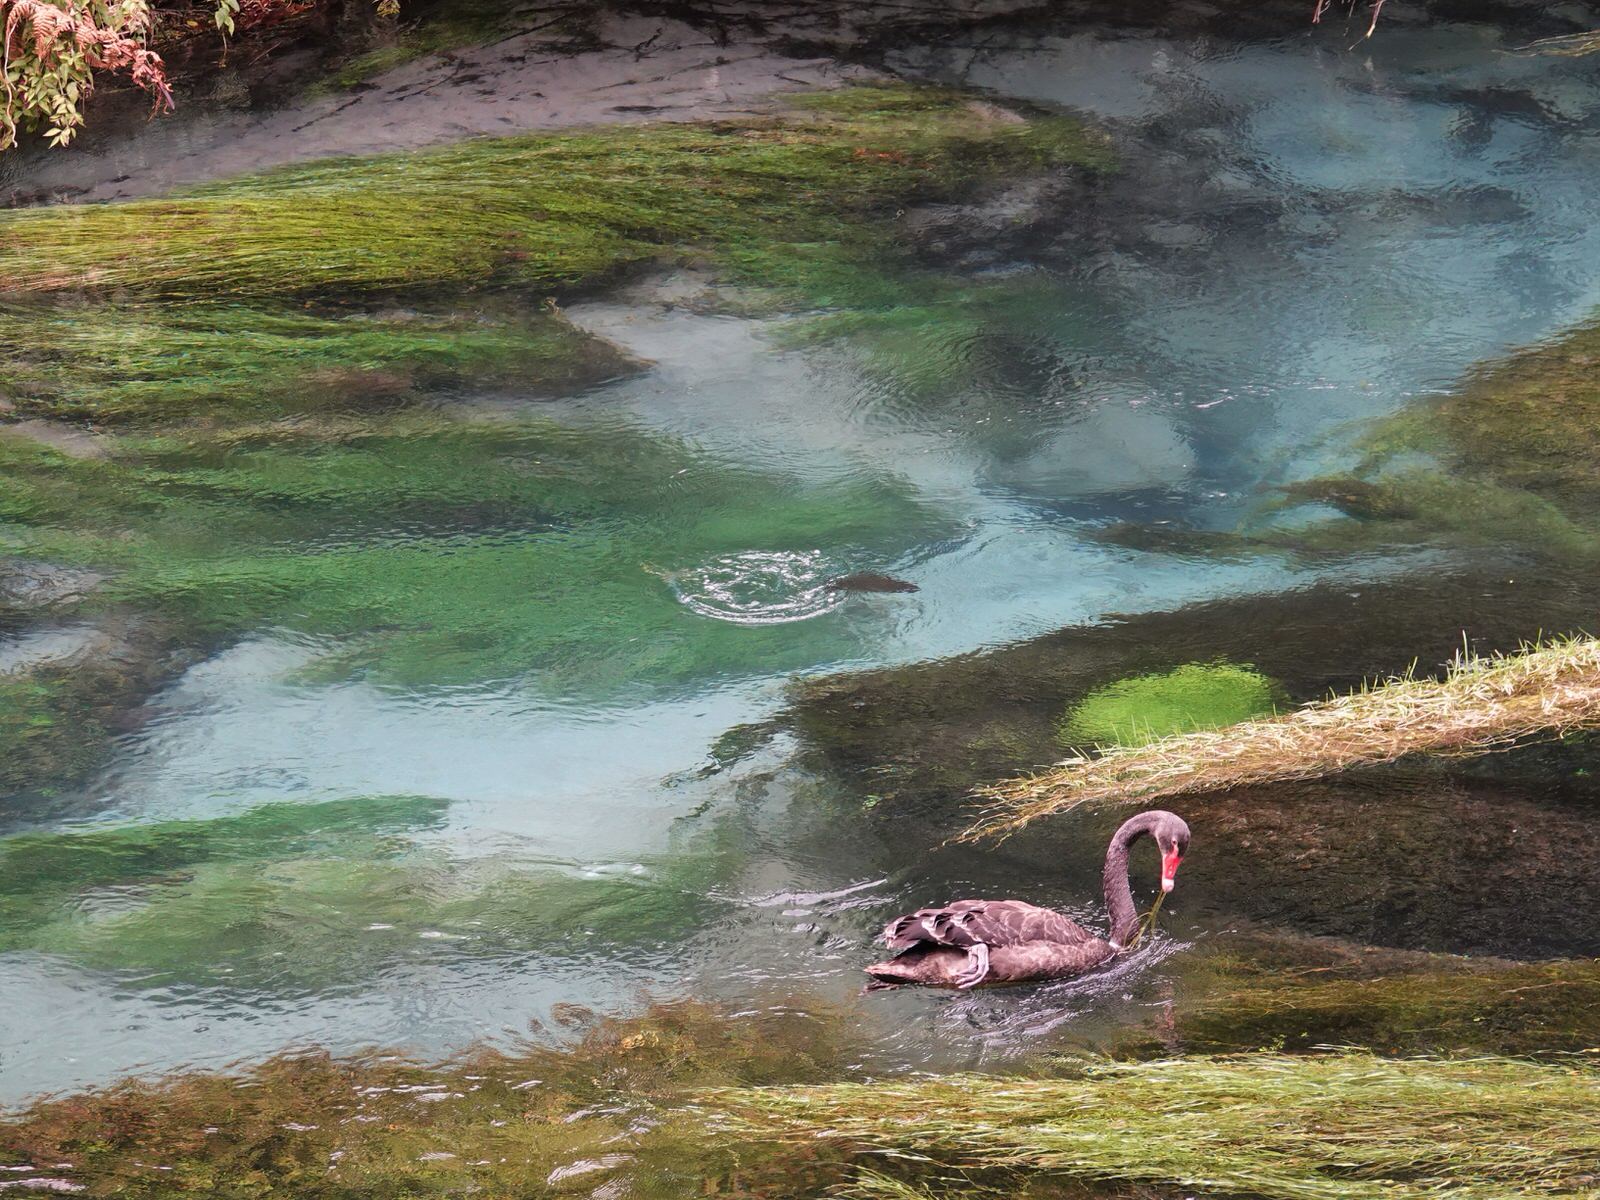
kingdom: Animalia
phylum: Chordata
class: Aves
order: Anseriformes
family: Anatidae
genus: Cygnus
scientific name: Cygnus atratus
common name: Black swan
